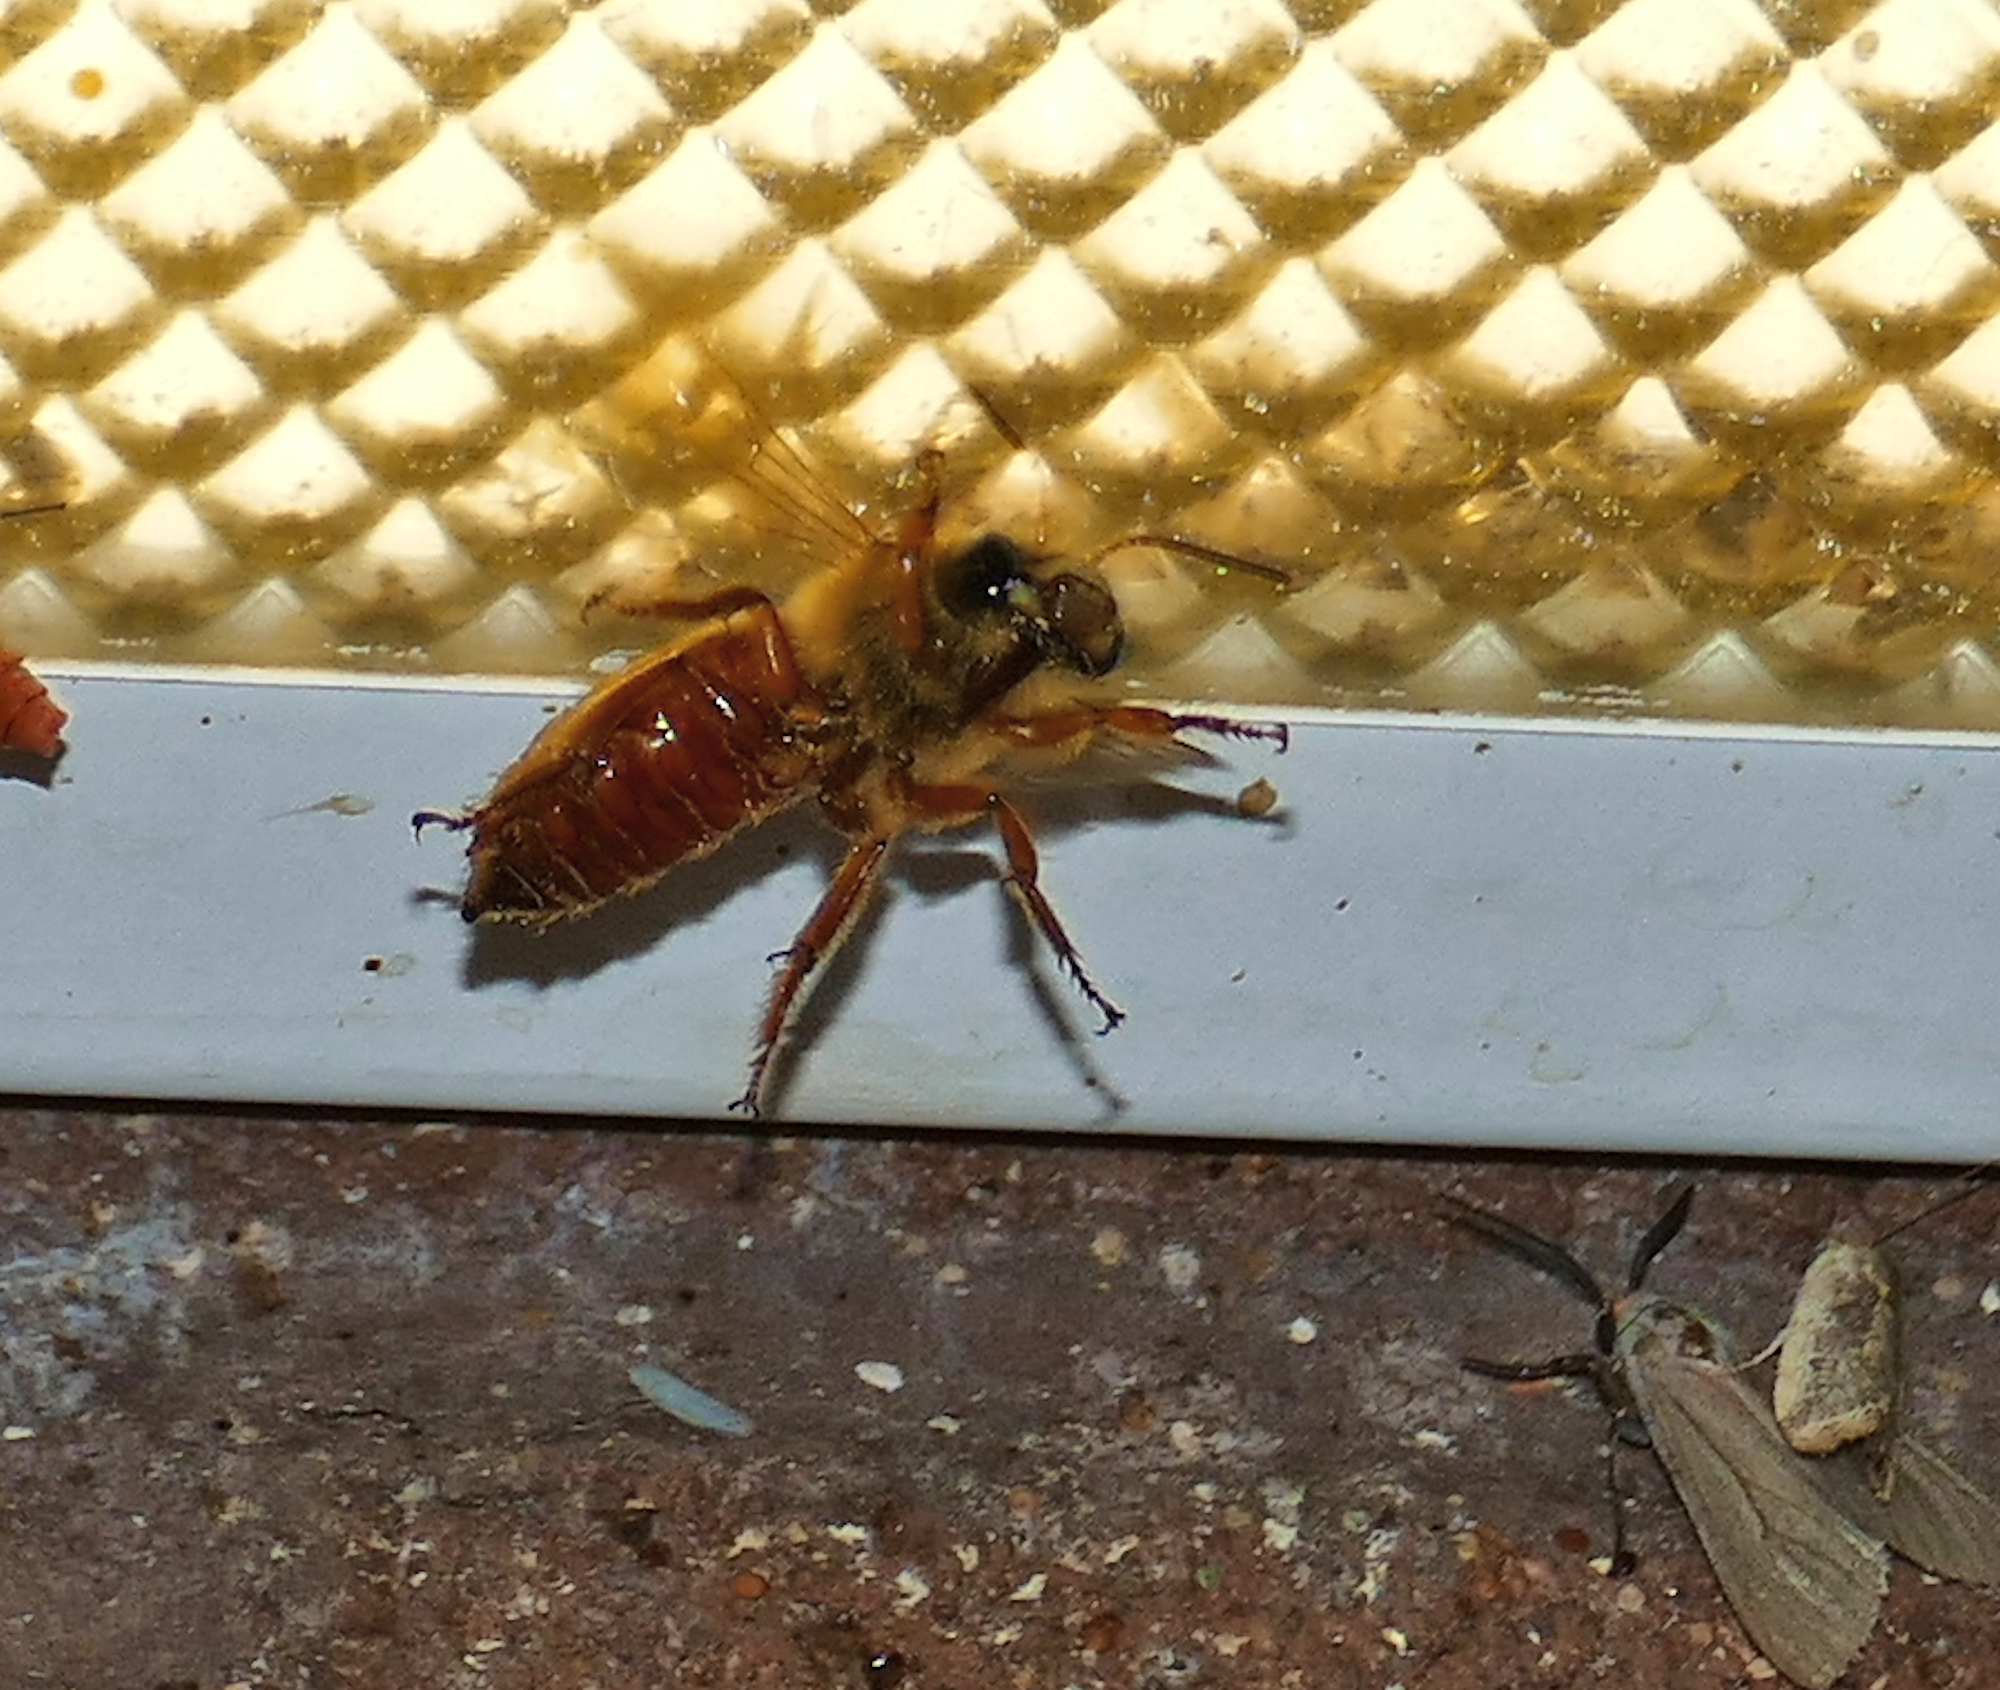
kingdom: Animalia
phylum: Arthropoda
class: Insecta
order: Hymenoptera
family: Apidae
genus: Xenoglossa
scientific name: Xenoglossa angustior
